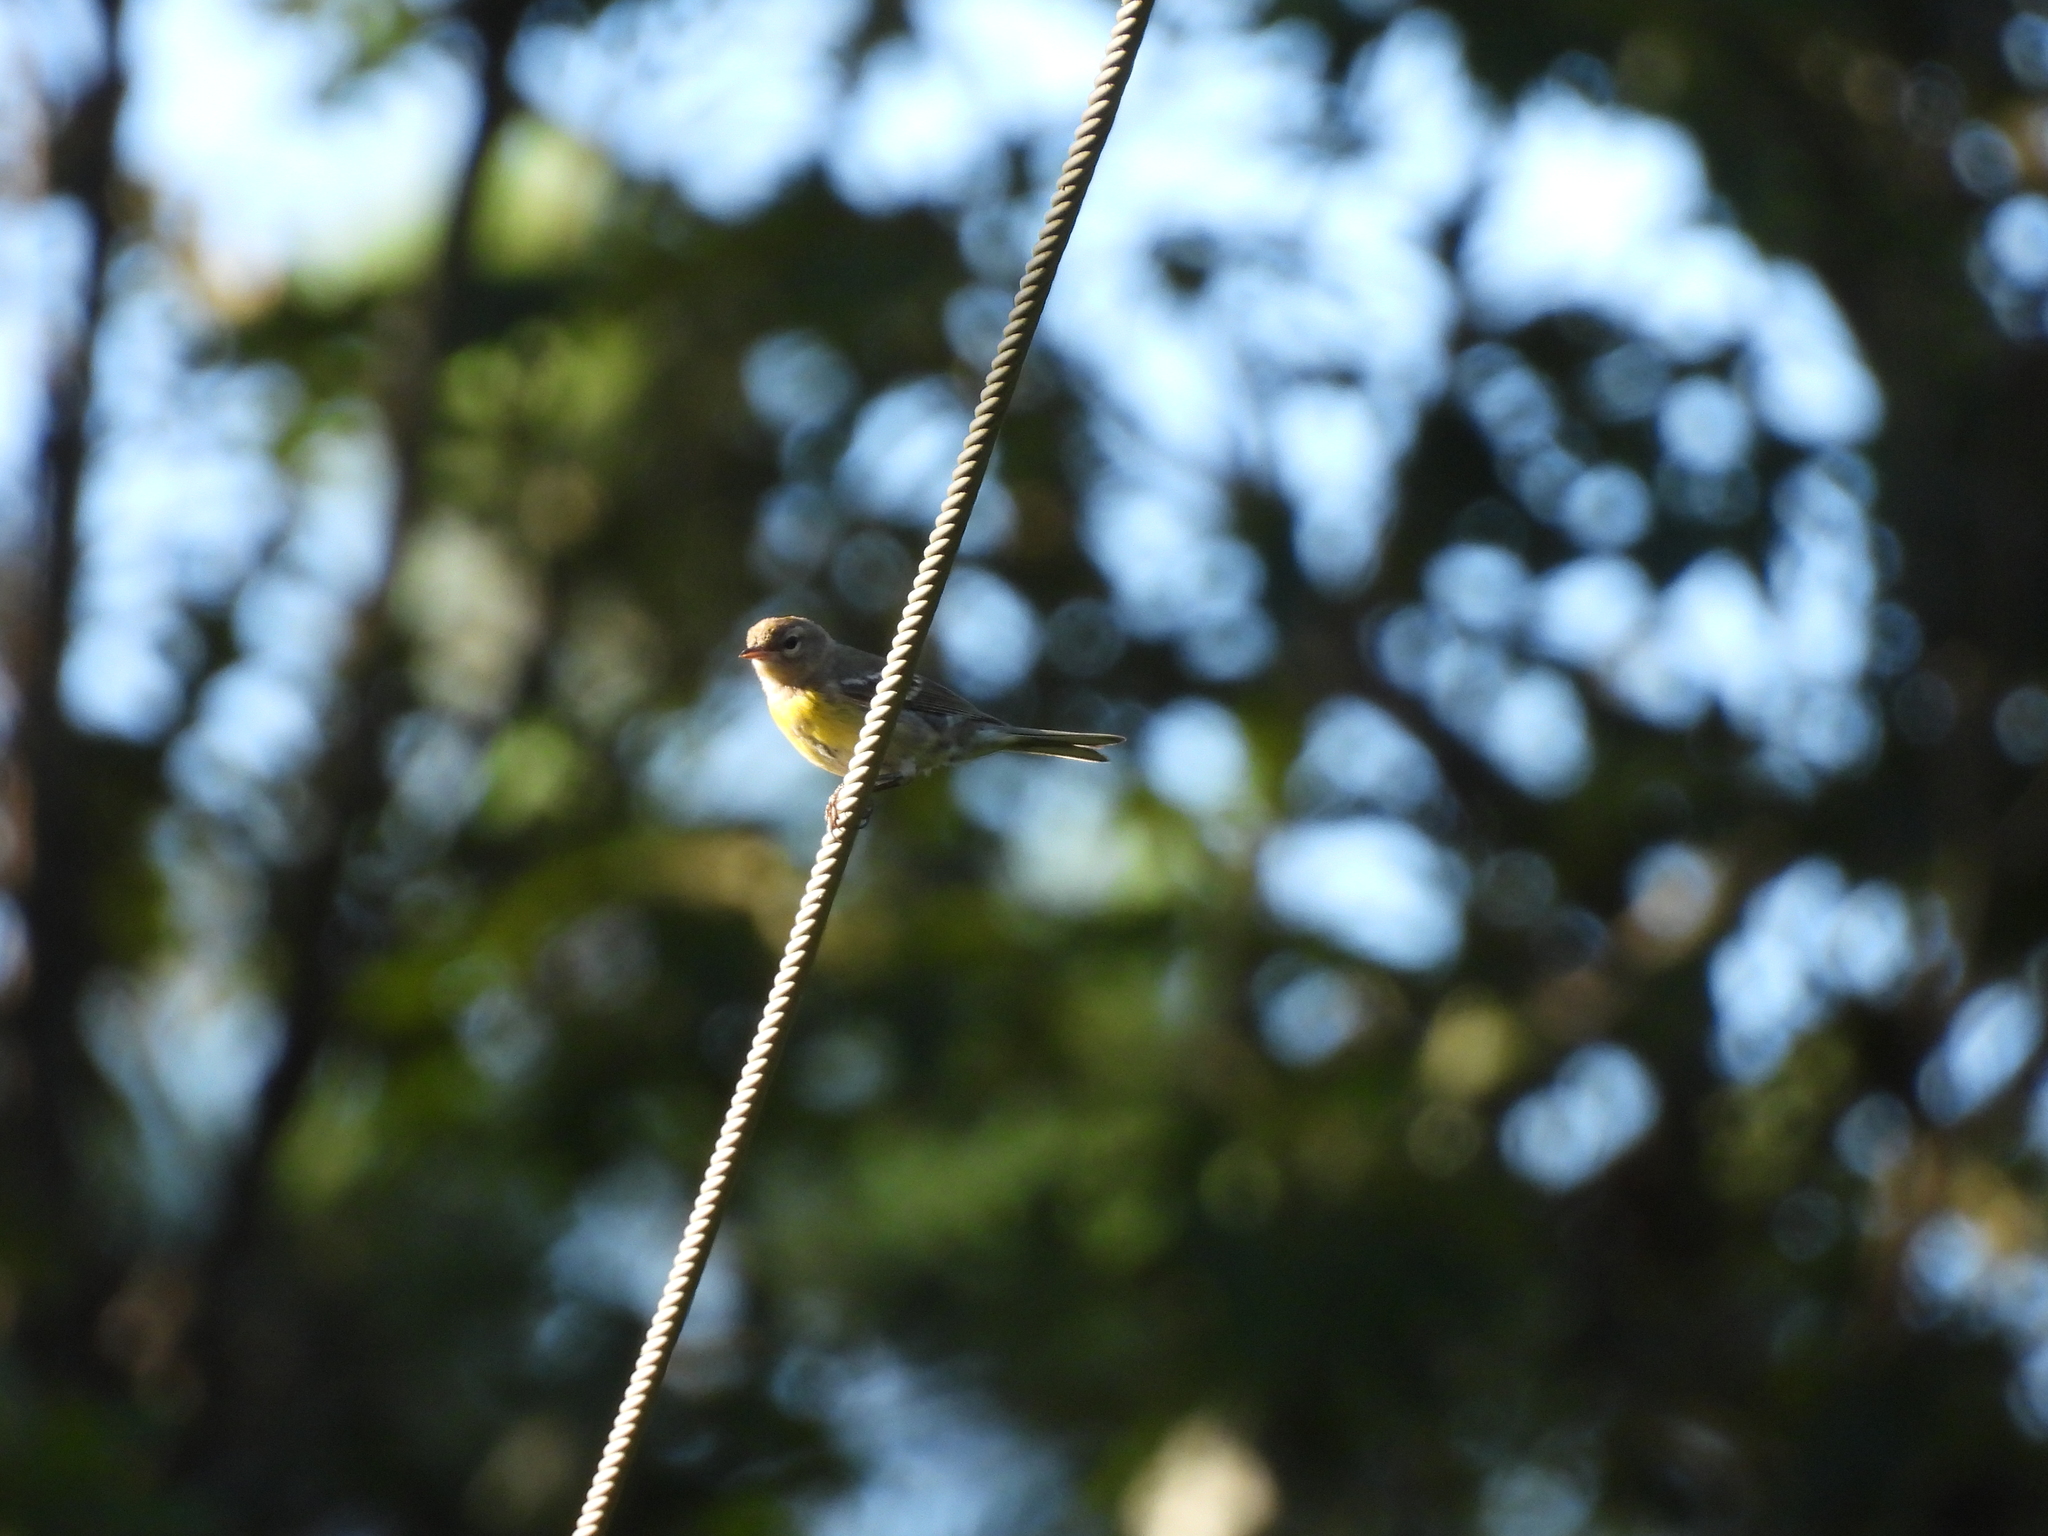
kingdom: Animalia
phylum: Chordata
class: Aves
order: Passeriformes
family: Parulidae
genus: Setophaga
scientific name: Setophaga americana
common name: Northern parula
